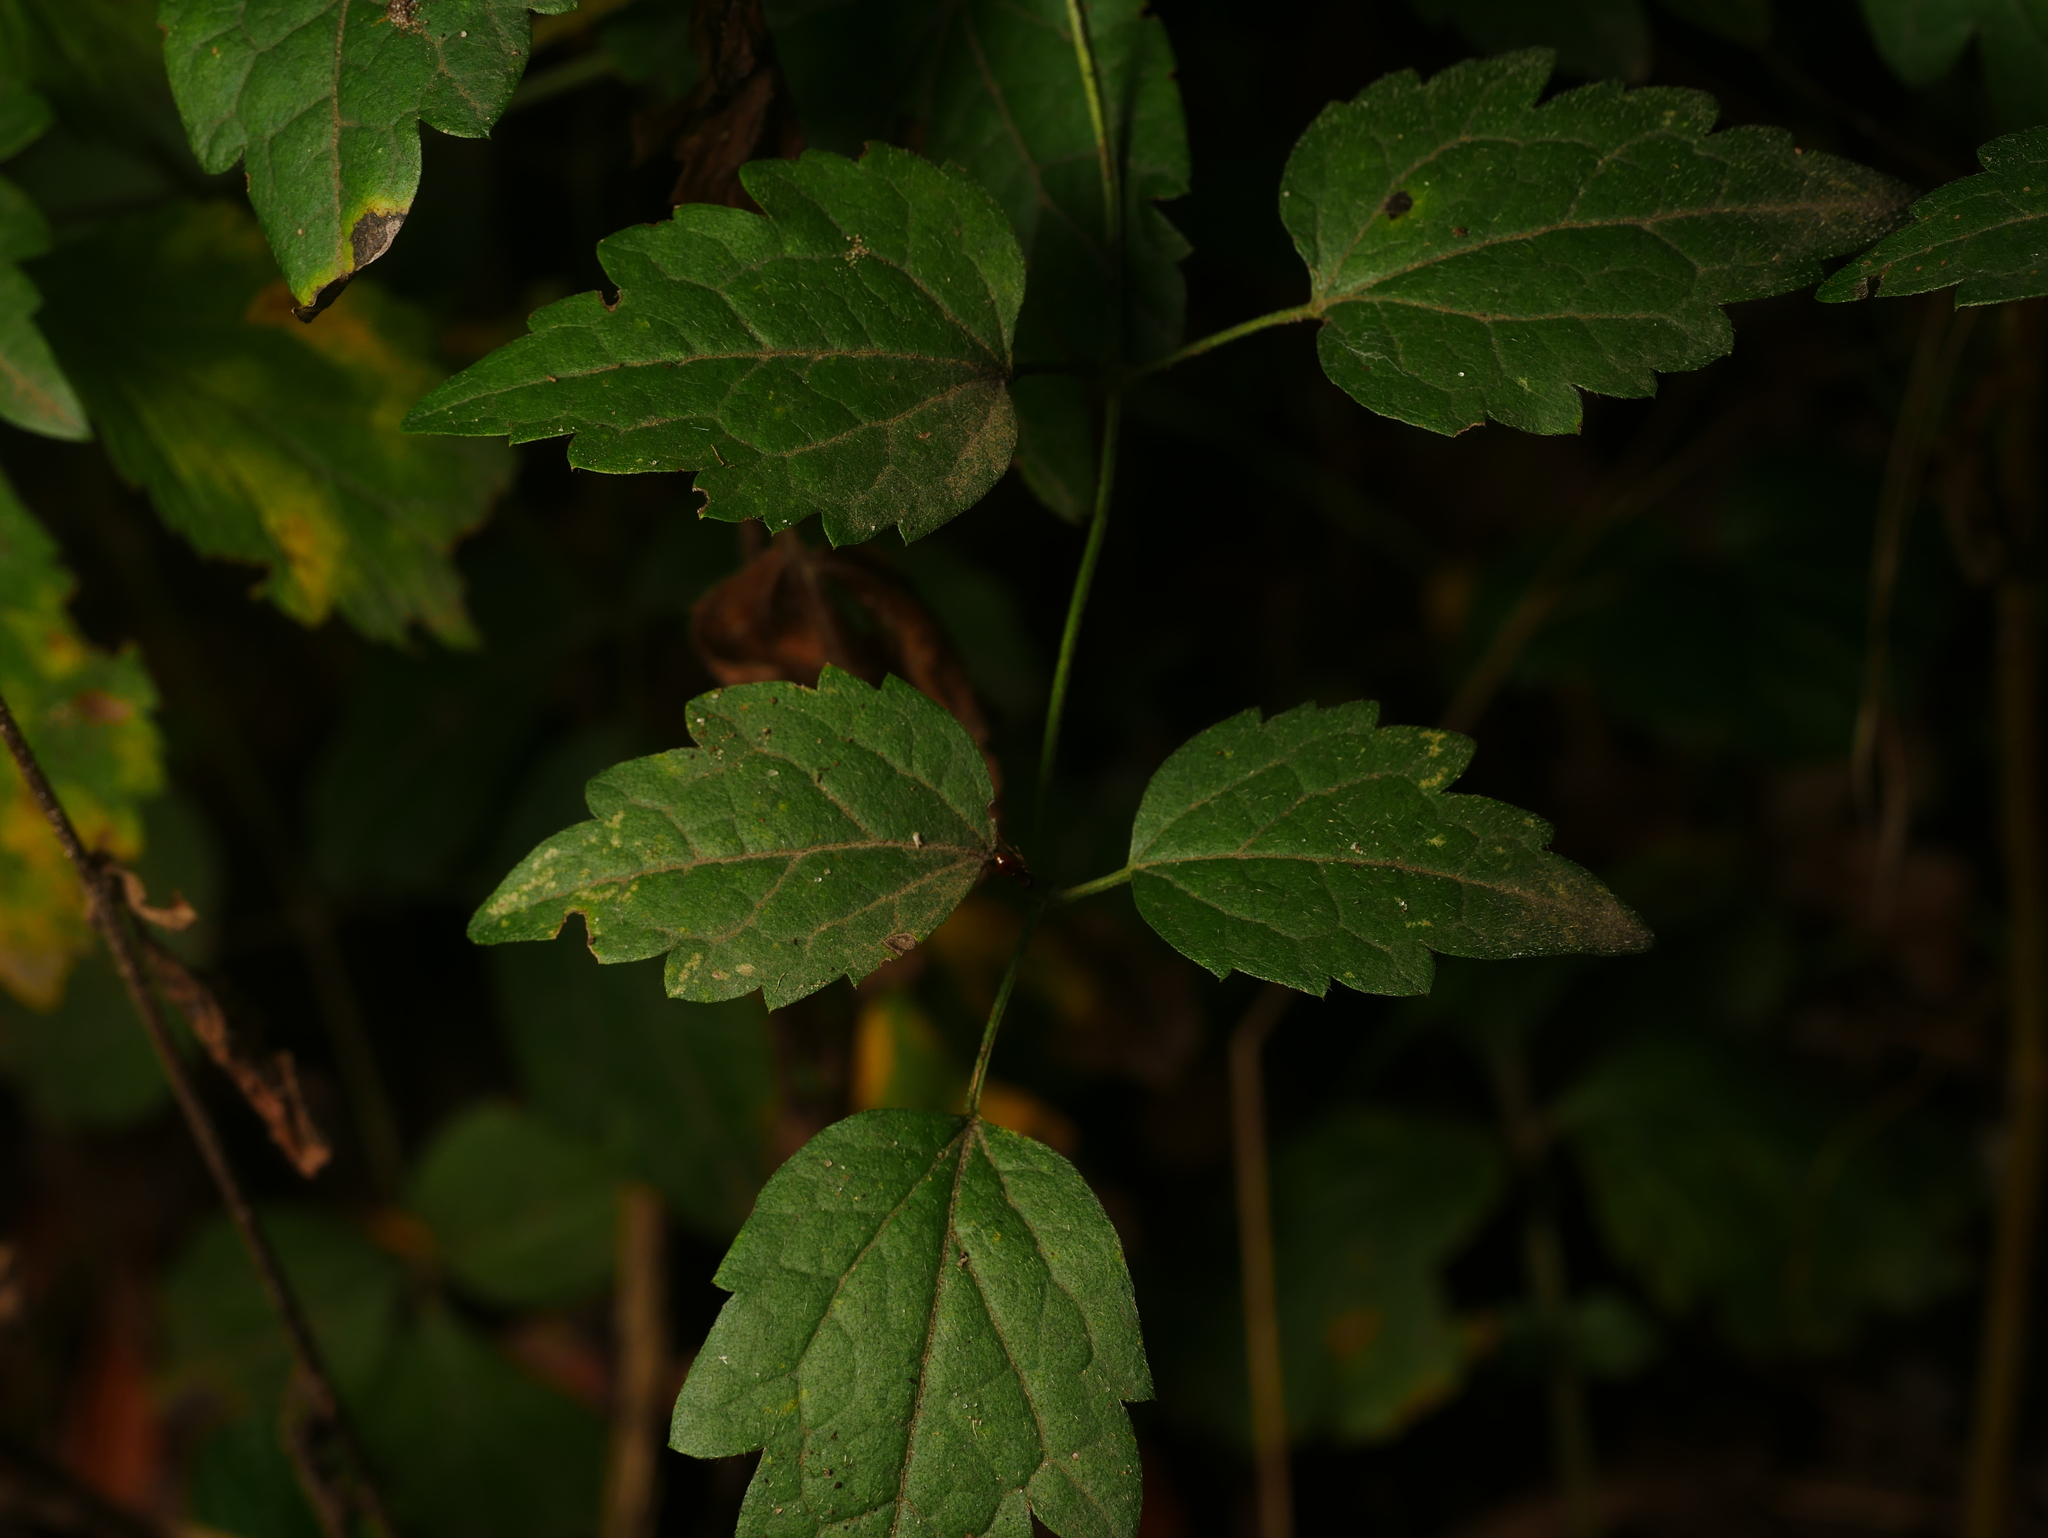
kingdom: Plantae
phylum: Tracheophyta
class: Magnoliopsida
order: Ranunculales
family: Ranunculaceae
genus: Clematis
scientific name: Clematis vitalba
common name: Evergreen clematis
